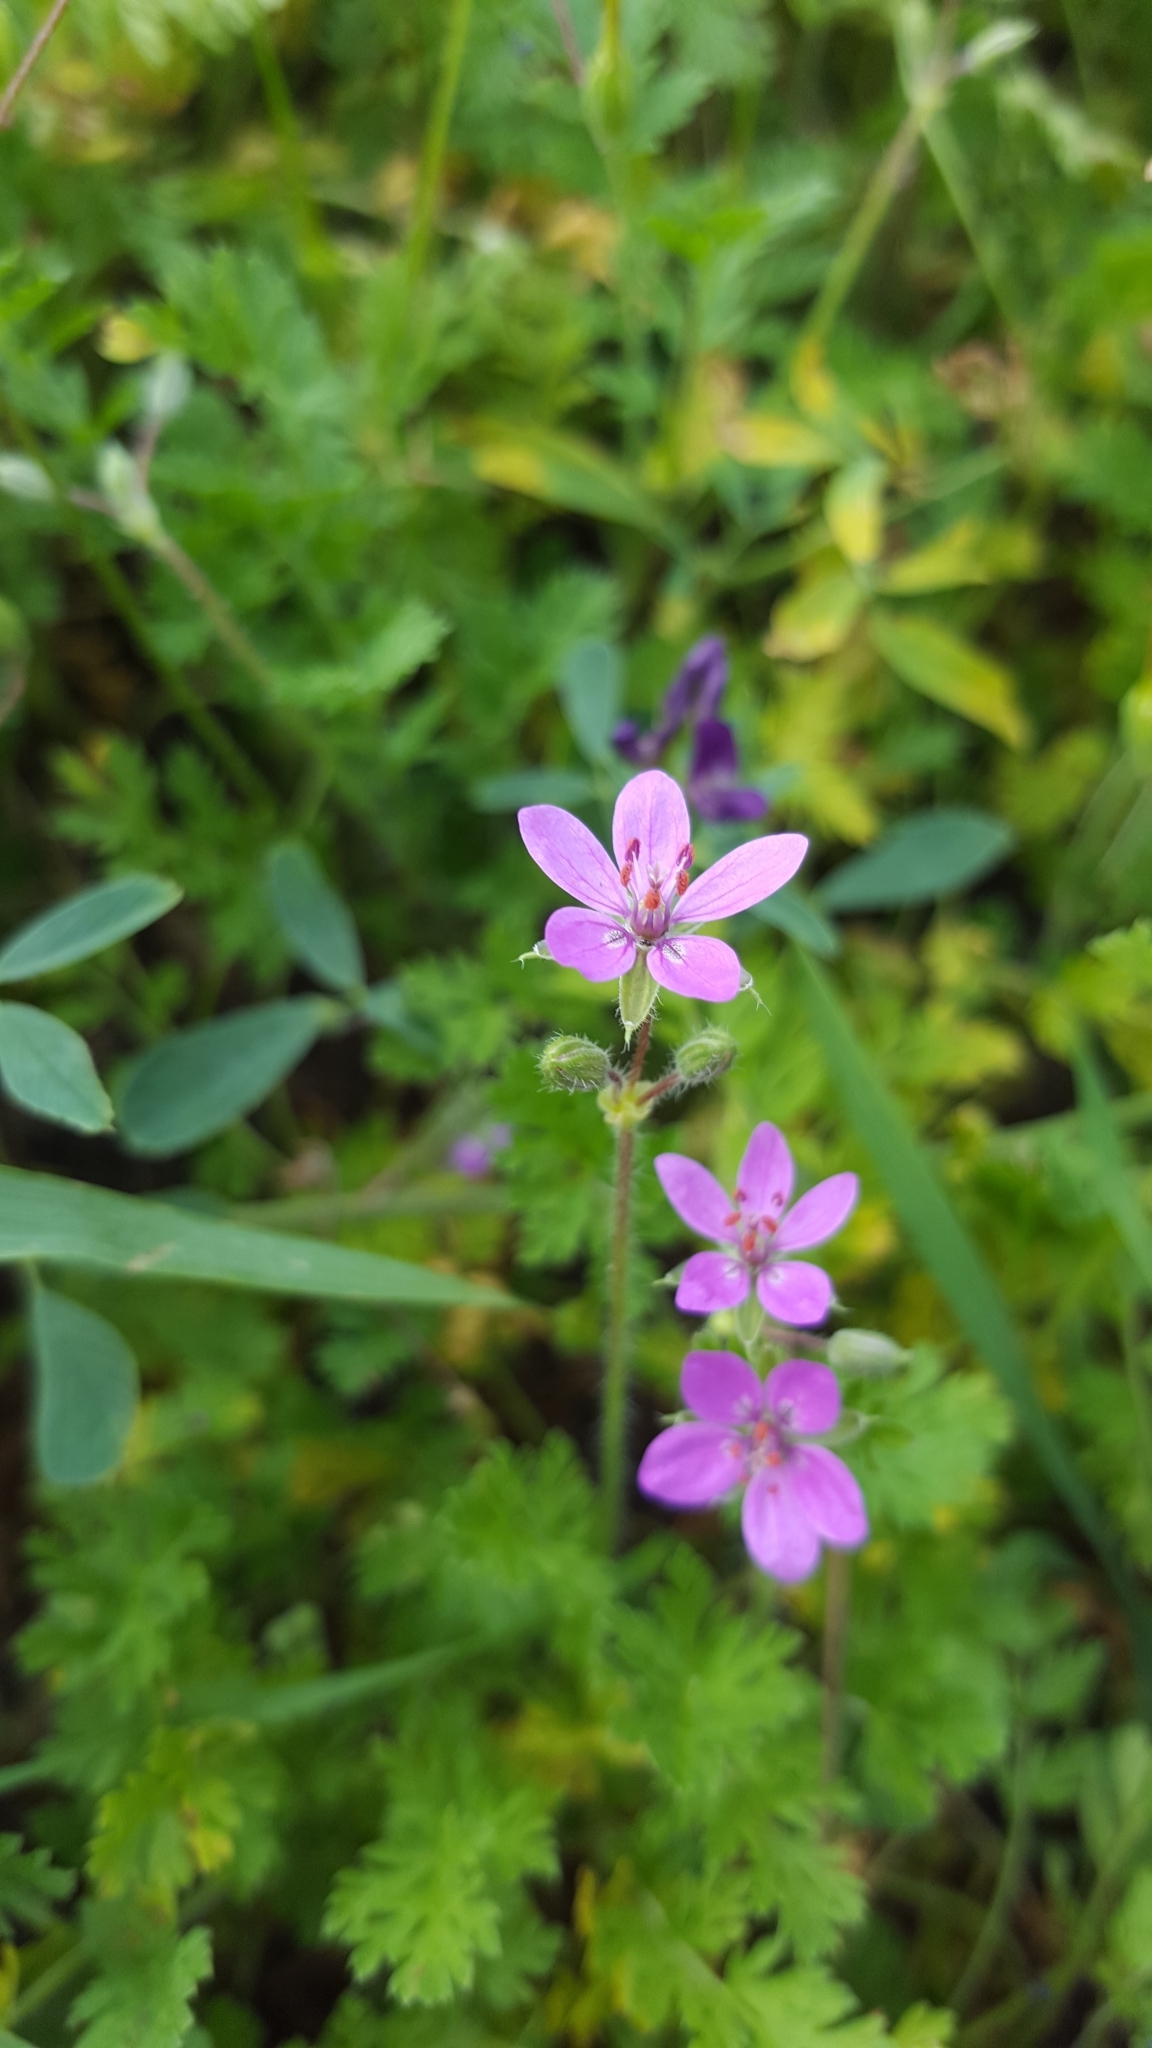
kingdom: Plantae
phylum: Tracheophyta
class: Magnoliopsida
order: Geraniales
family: Geraniaceae
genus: Erodium
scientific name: Erodium cicutarium
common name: Common stork's-bill
